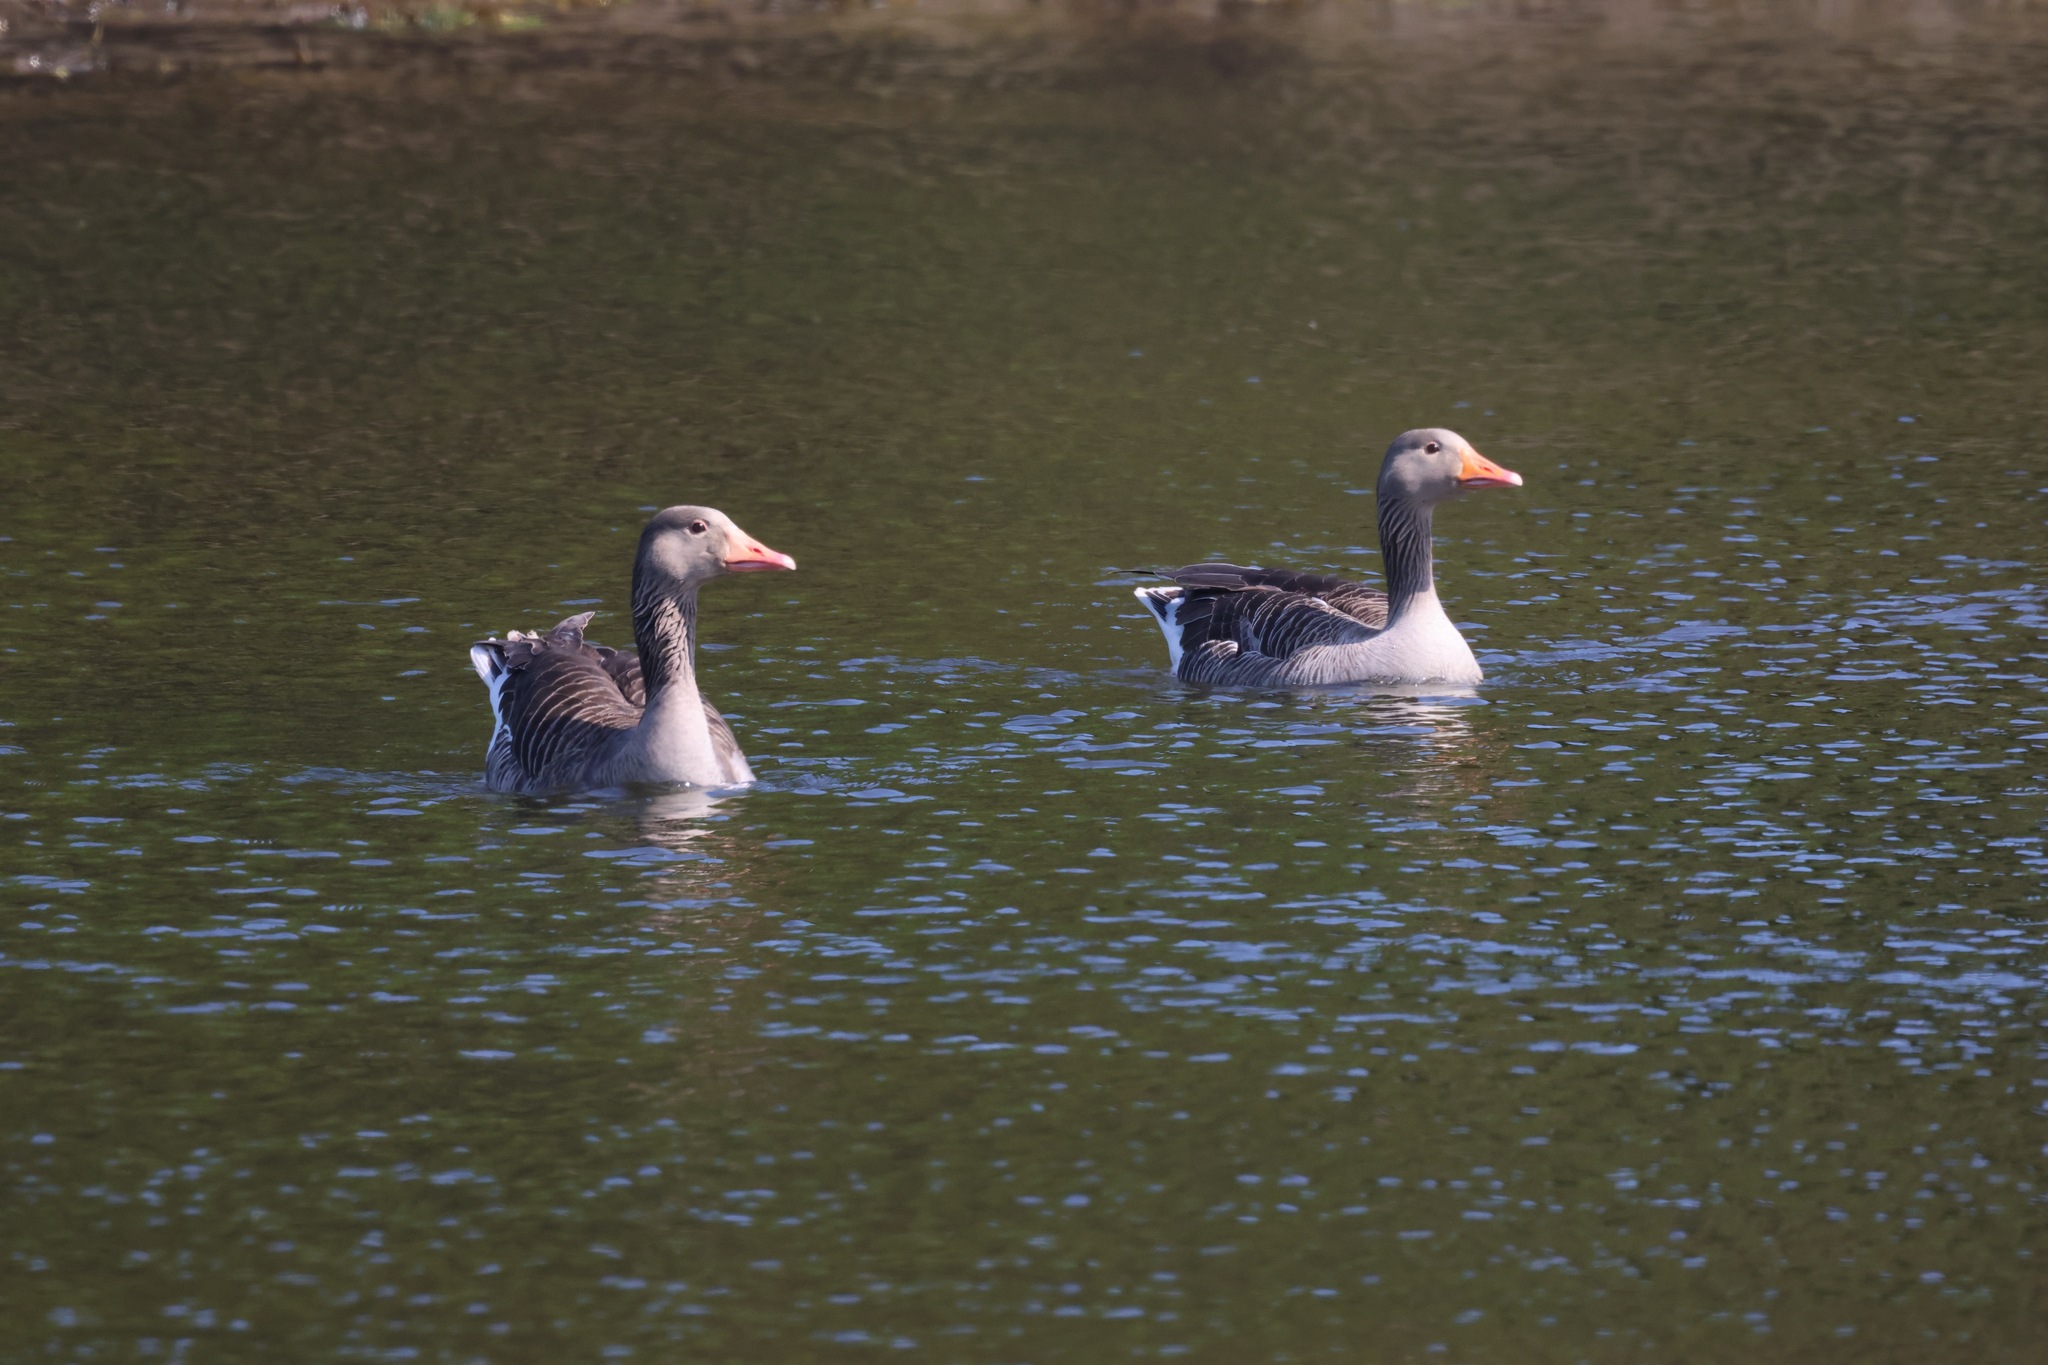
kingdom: Animalia
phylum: Chordata
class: Aves
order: Anseriformes
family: Anatidae
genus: Anser
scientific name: Anser anser
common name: Greylag goose
